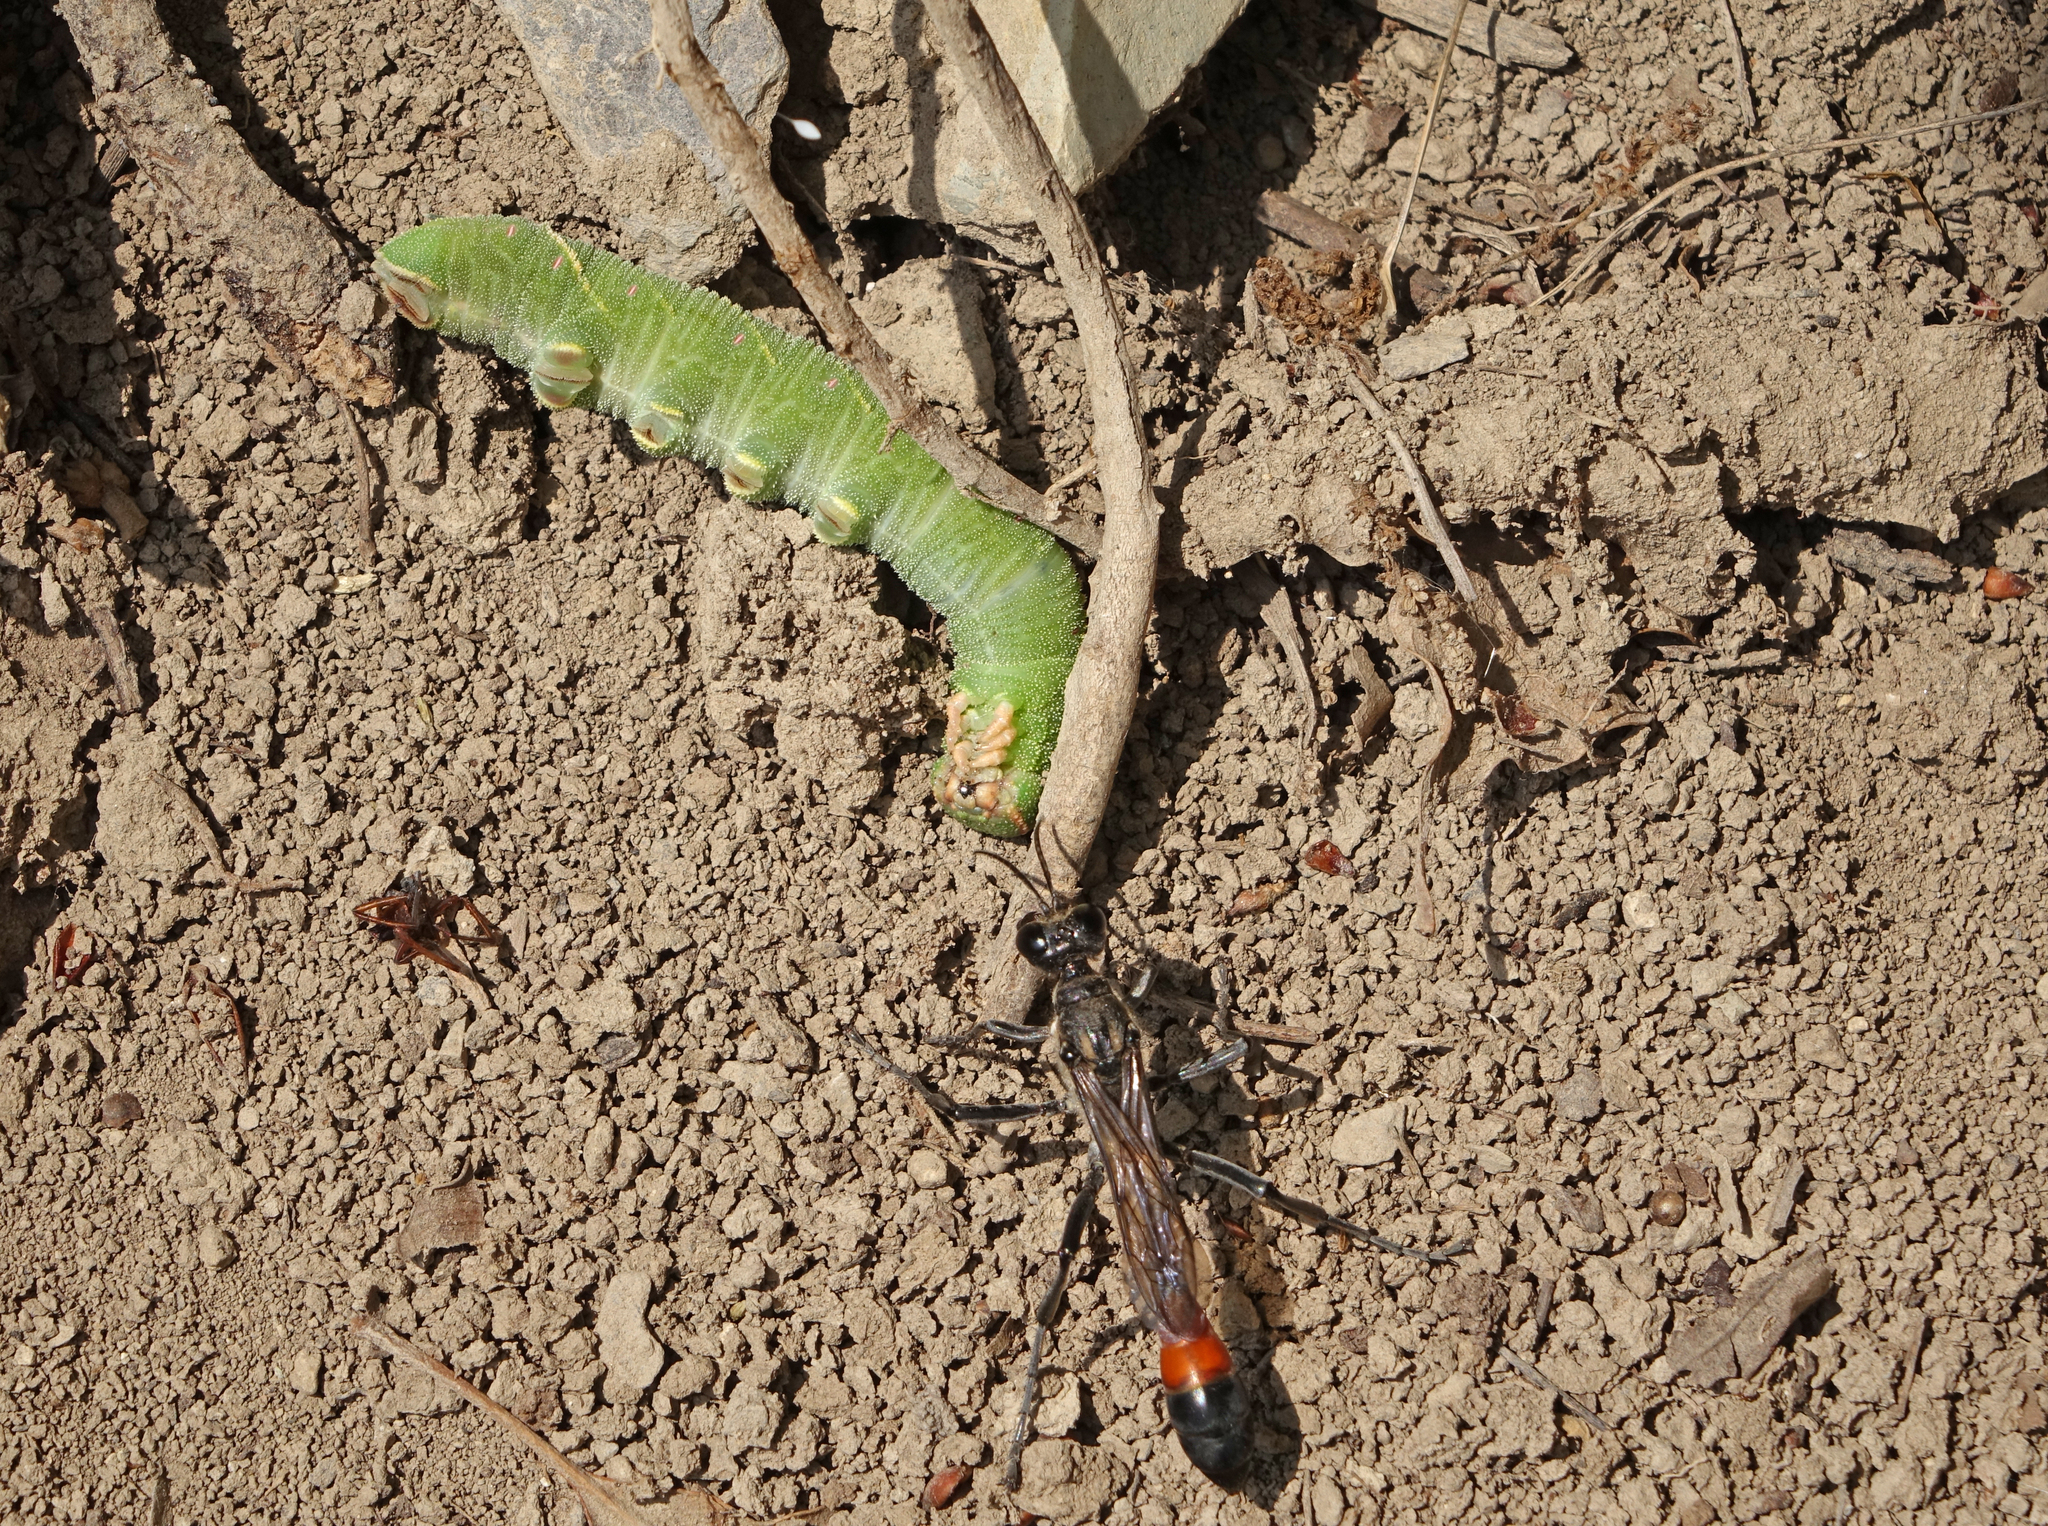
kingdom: Animalia
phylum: Arthropoda
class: Insecta
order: Lepidoptera
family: Sphingidae
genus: Marumba
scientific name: Marumba quercus
